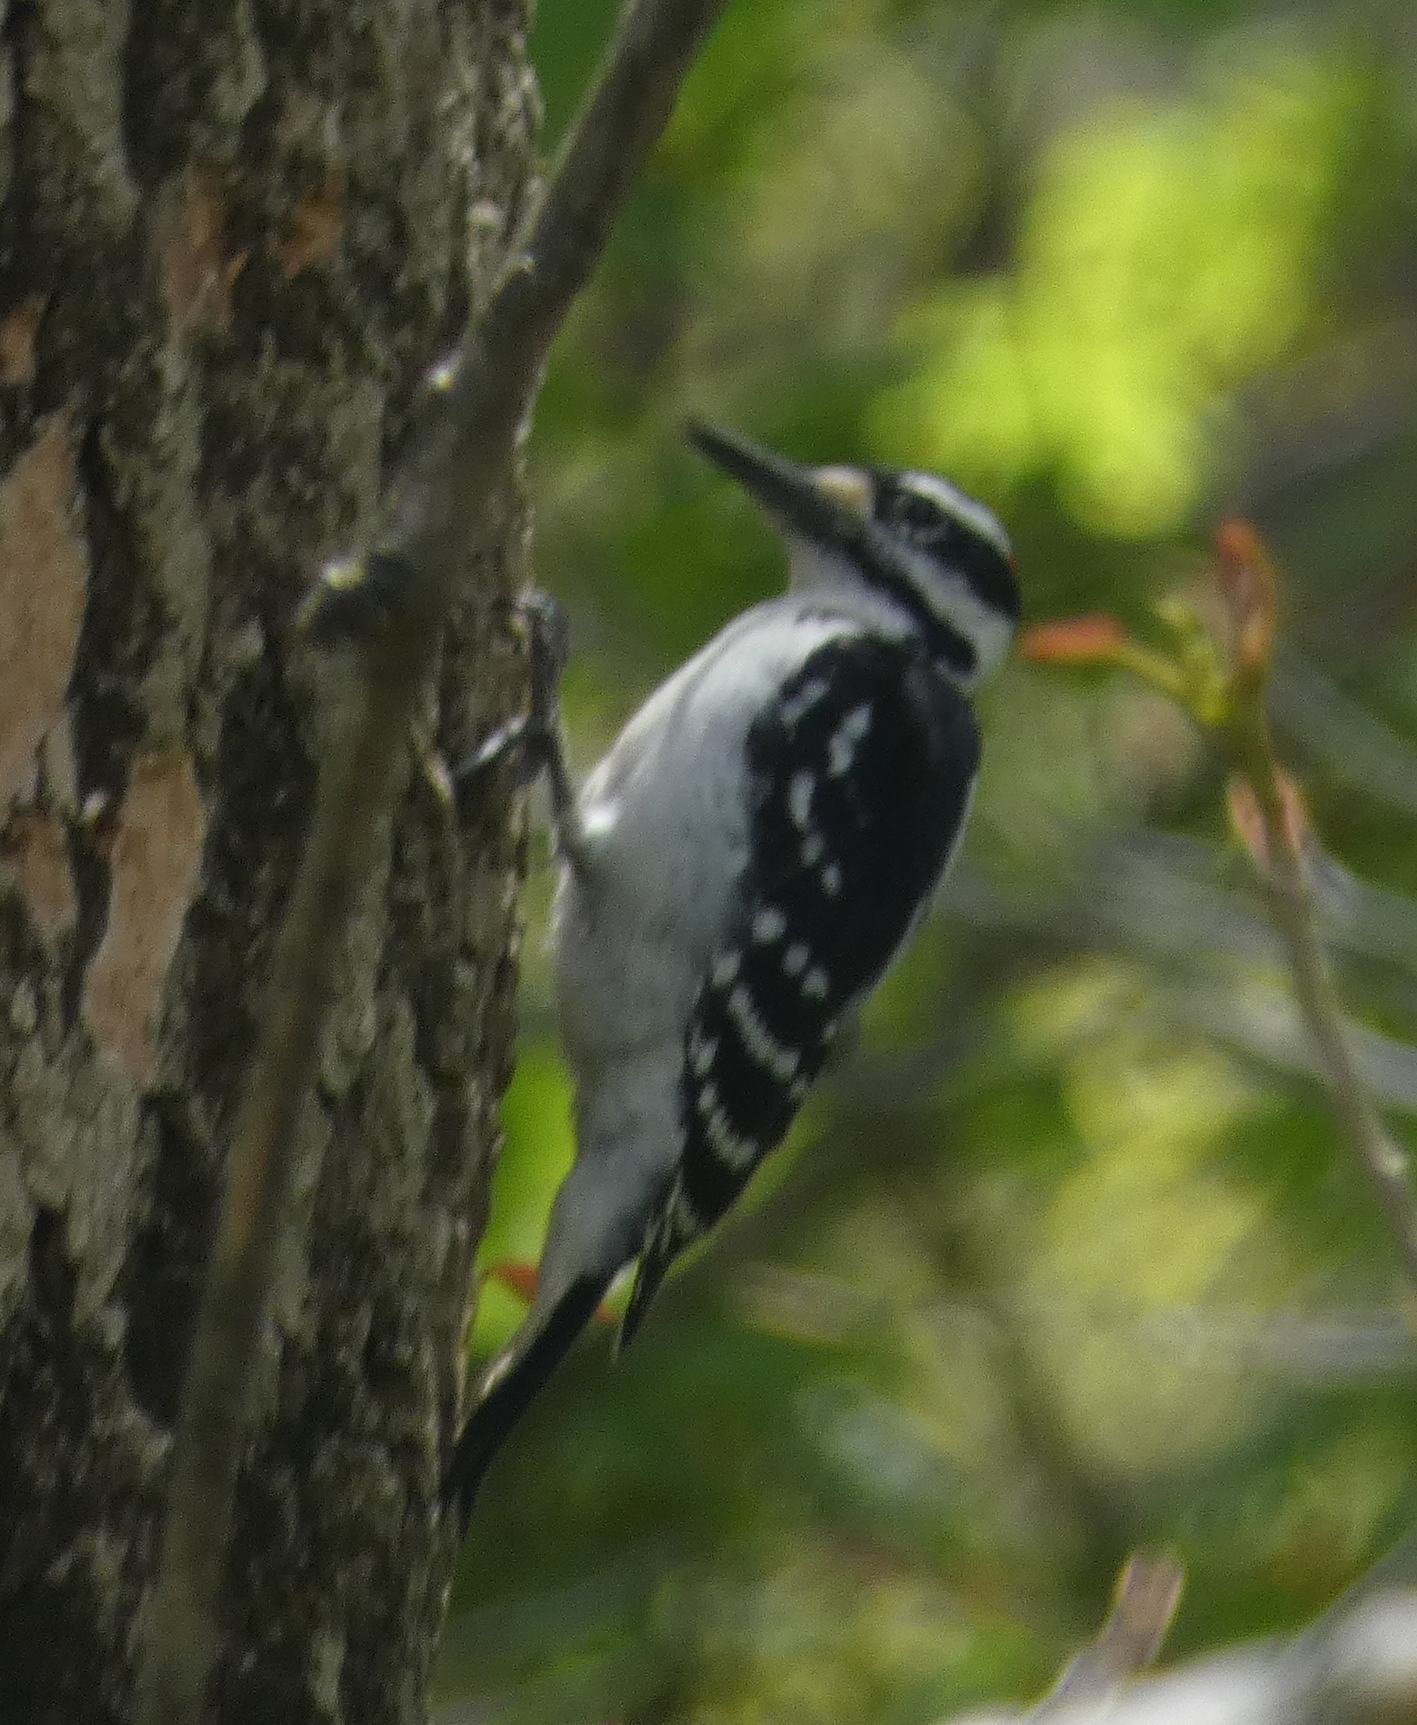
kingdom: Animalia
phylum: Chordata
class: Aves
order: Piciformes
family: Picidae
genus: Leuconotopicus
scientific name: Leuconotopicus villosus
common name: Hairy woodpecker
